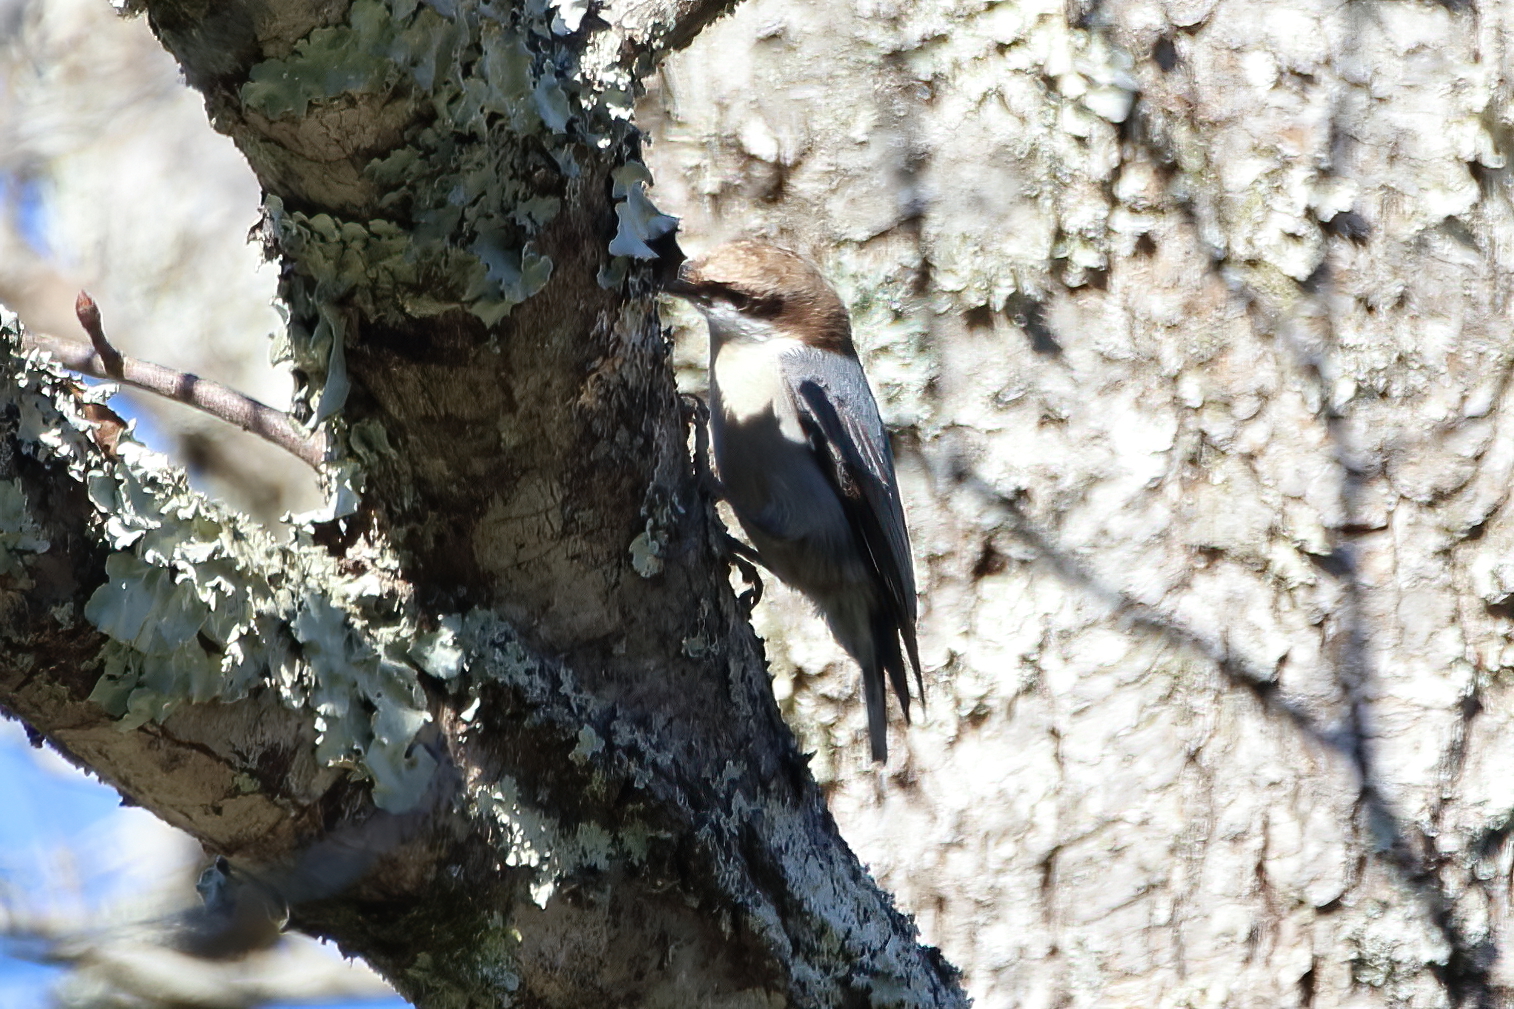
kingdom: Animalia
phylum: Chordata
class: Aves
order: Passeriformes
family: Sittidae
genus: Sitta
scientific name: Sitta pusilla
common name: Brown-headed nuthatch
